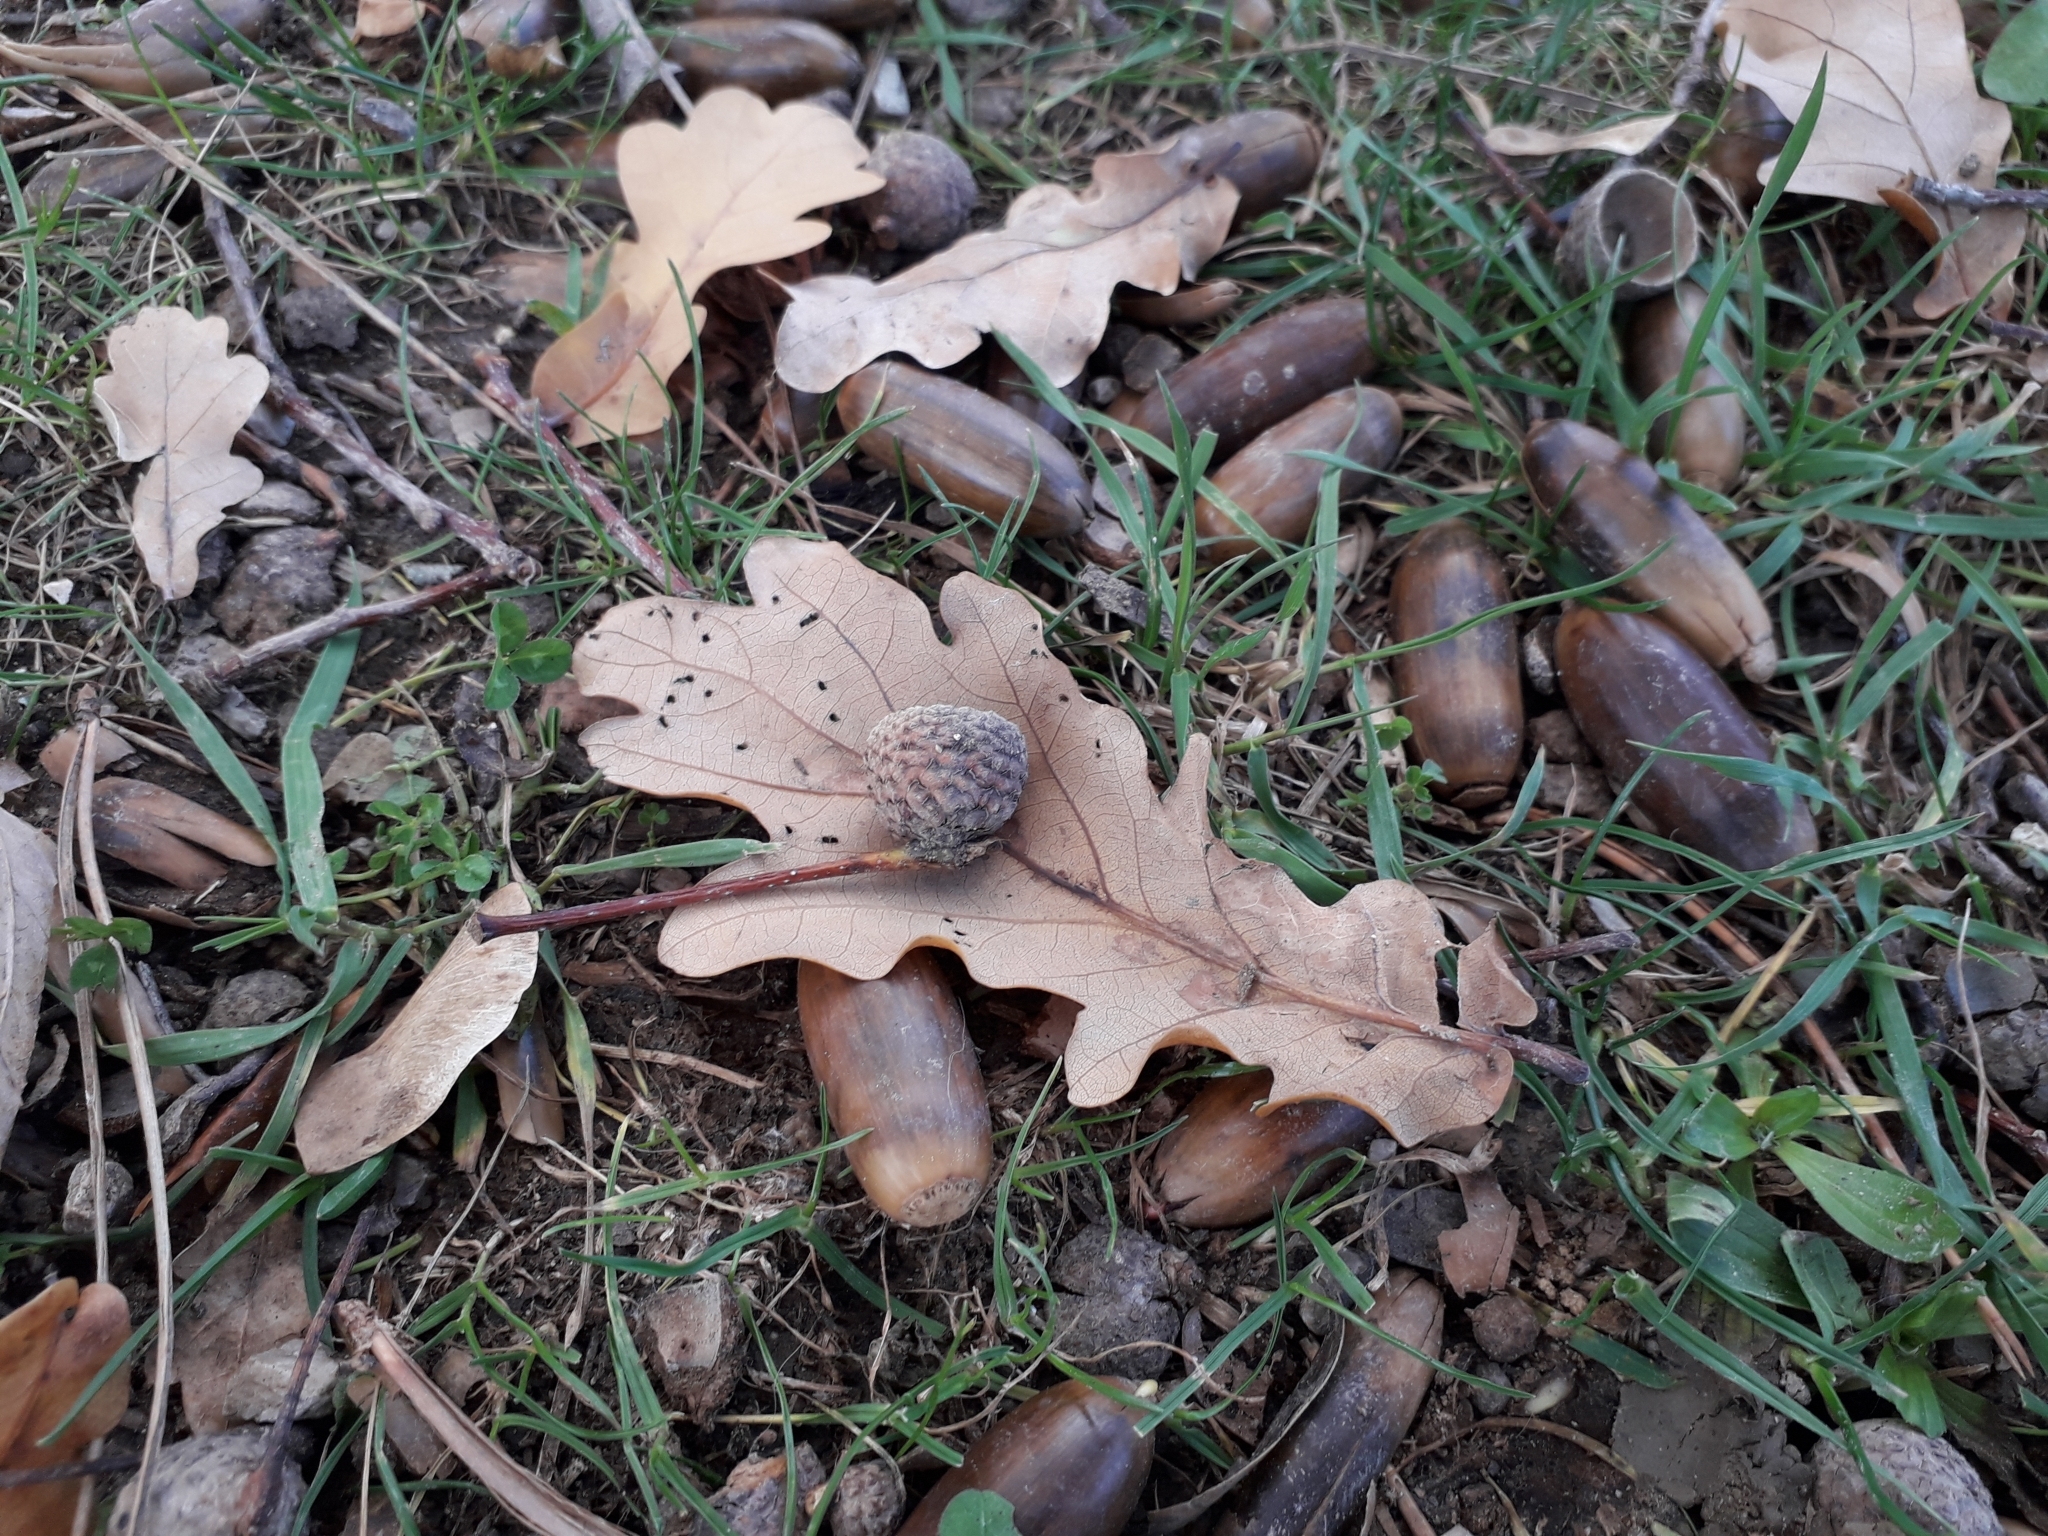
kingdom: Plantae
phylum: Tracheophyta
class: Magnoliopsida
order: Fagales
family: Fagaceae
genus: Quercus
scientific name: Quercus robur
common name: Pedunculate oak
